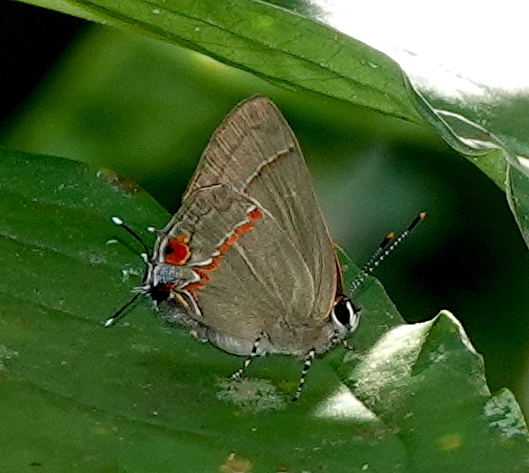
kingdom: Animalia
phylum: Arthropoda
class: Insecta
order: Lepidoptera
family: Lycaenidae
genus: Thecla
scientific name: Thecla syllis
